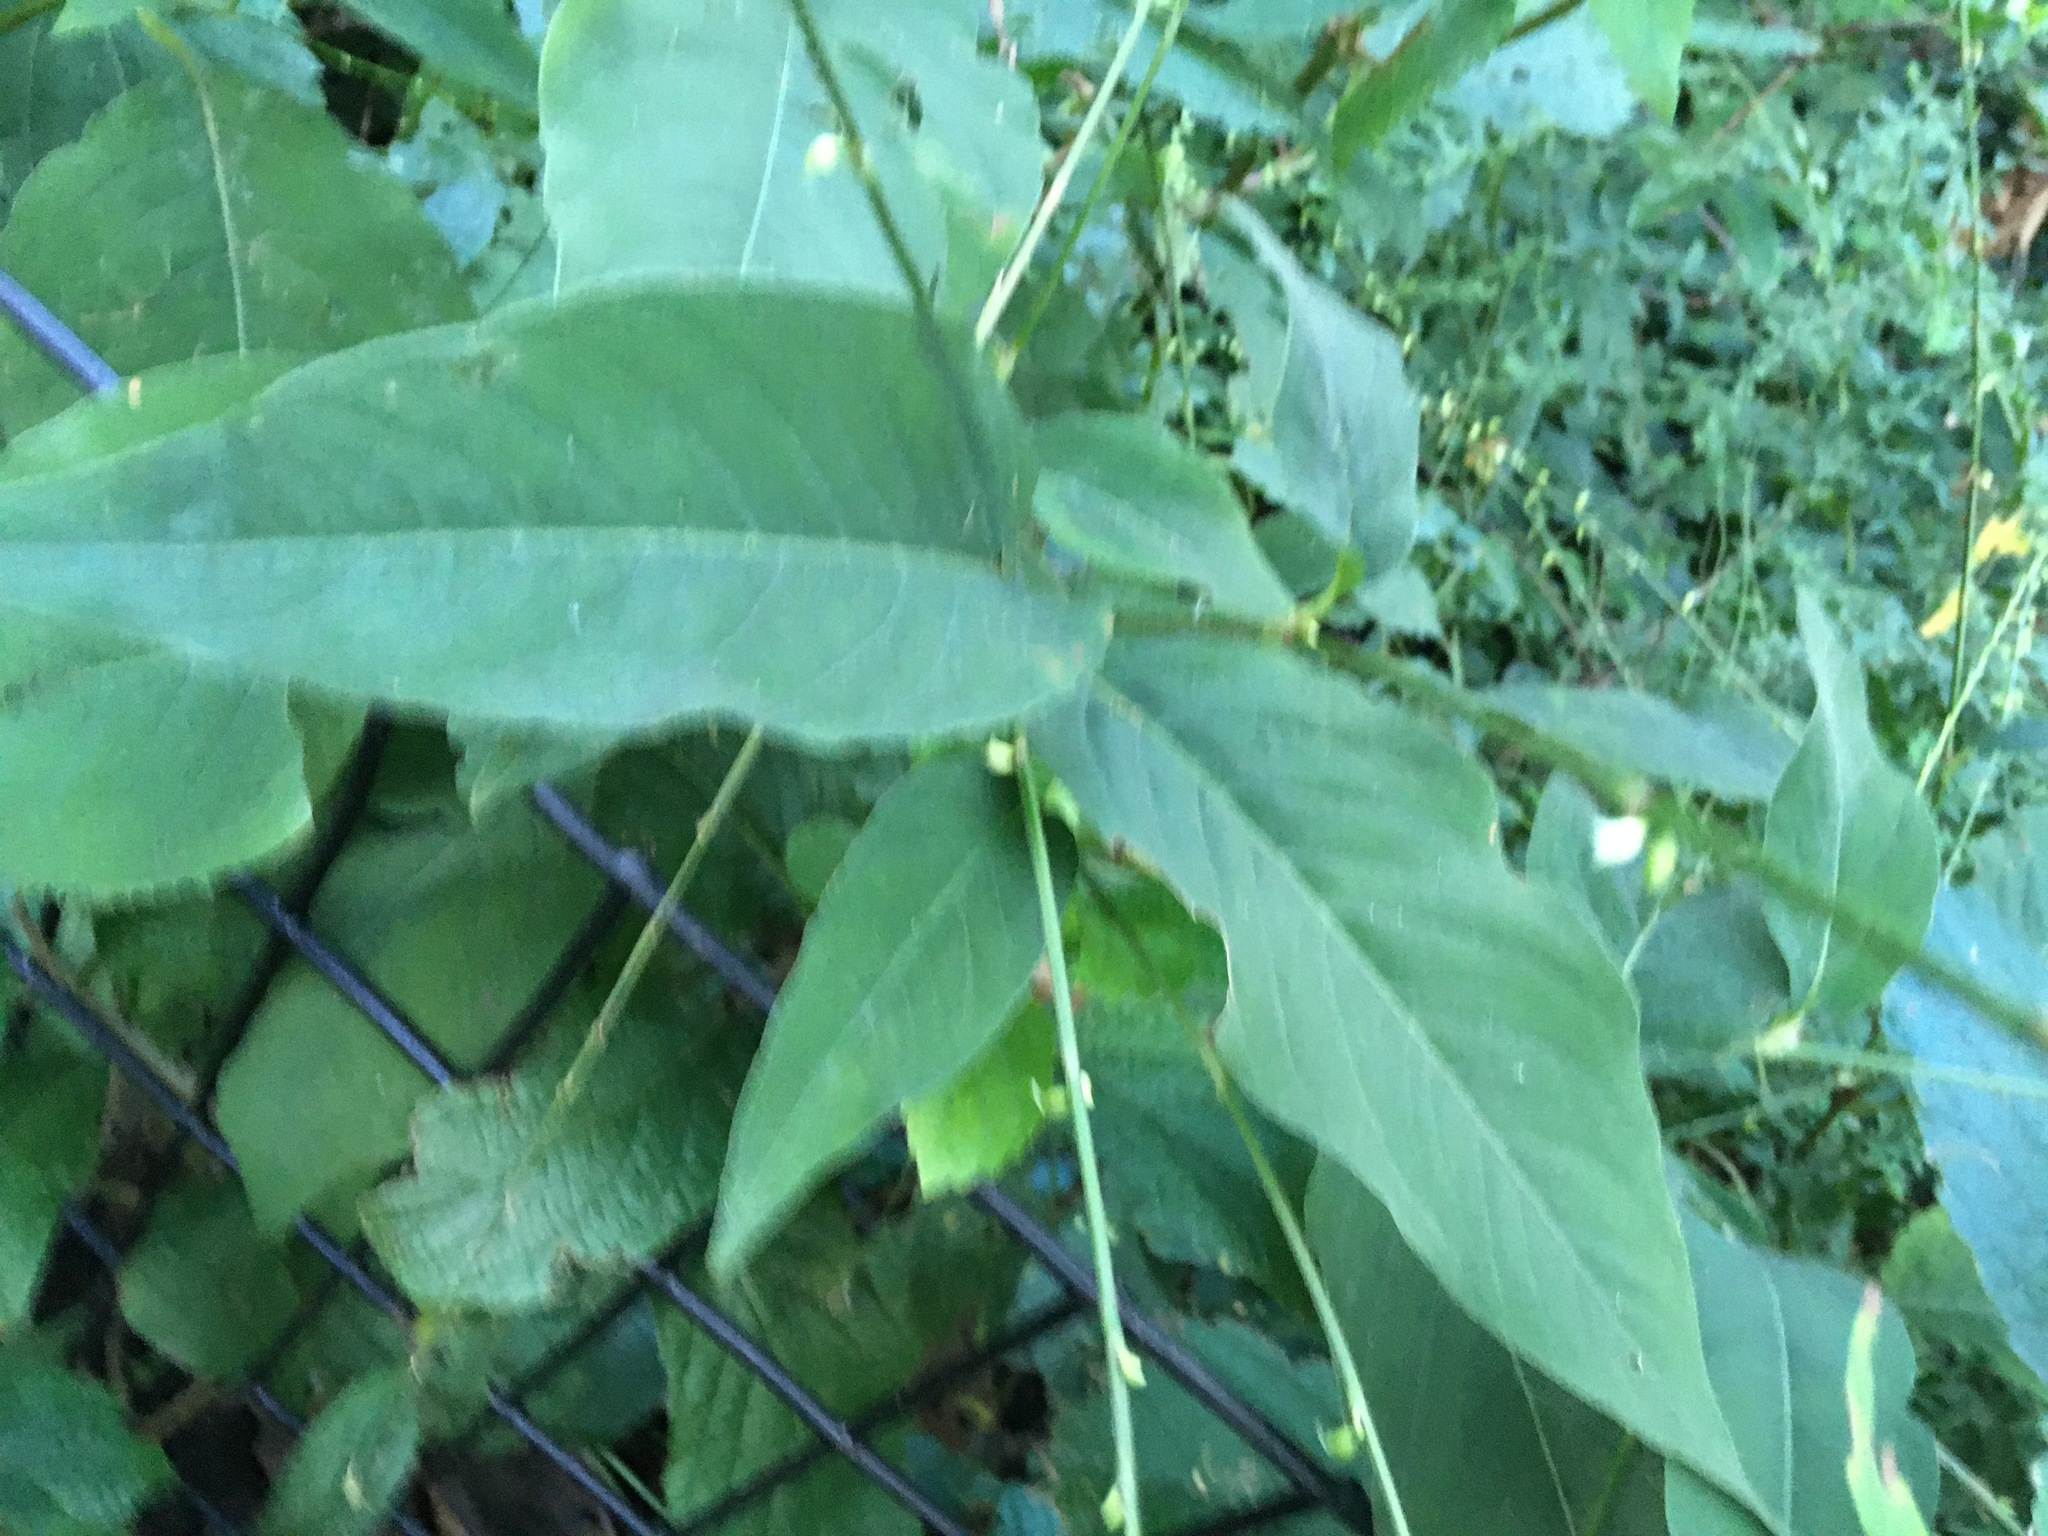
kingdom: Plantae
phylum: Tracheophyta
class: Magnoliopsida
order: Caryophyllales
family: Polygonaceae
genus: Persicaria
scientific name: Persicaria virginiana
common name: Jumpseed
